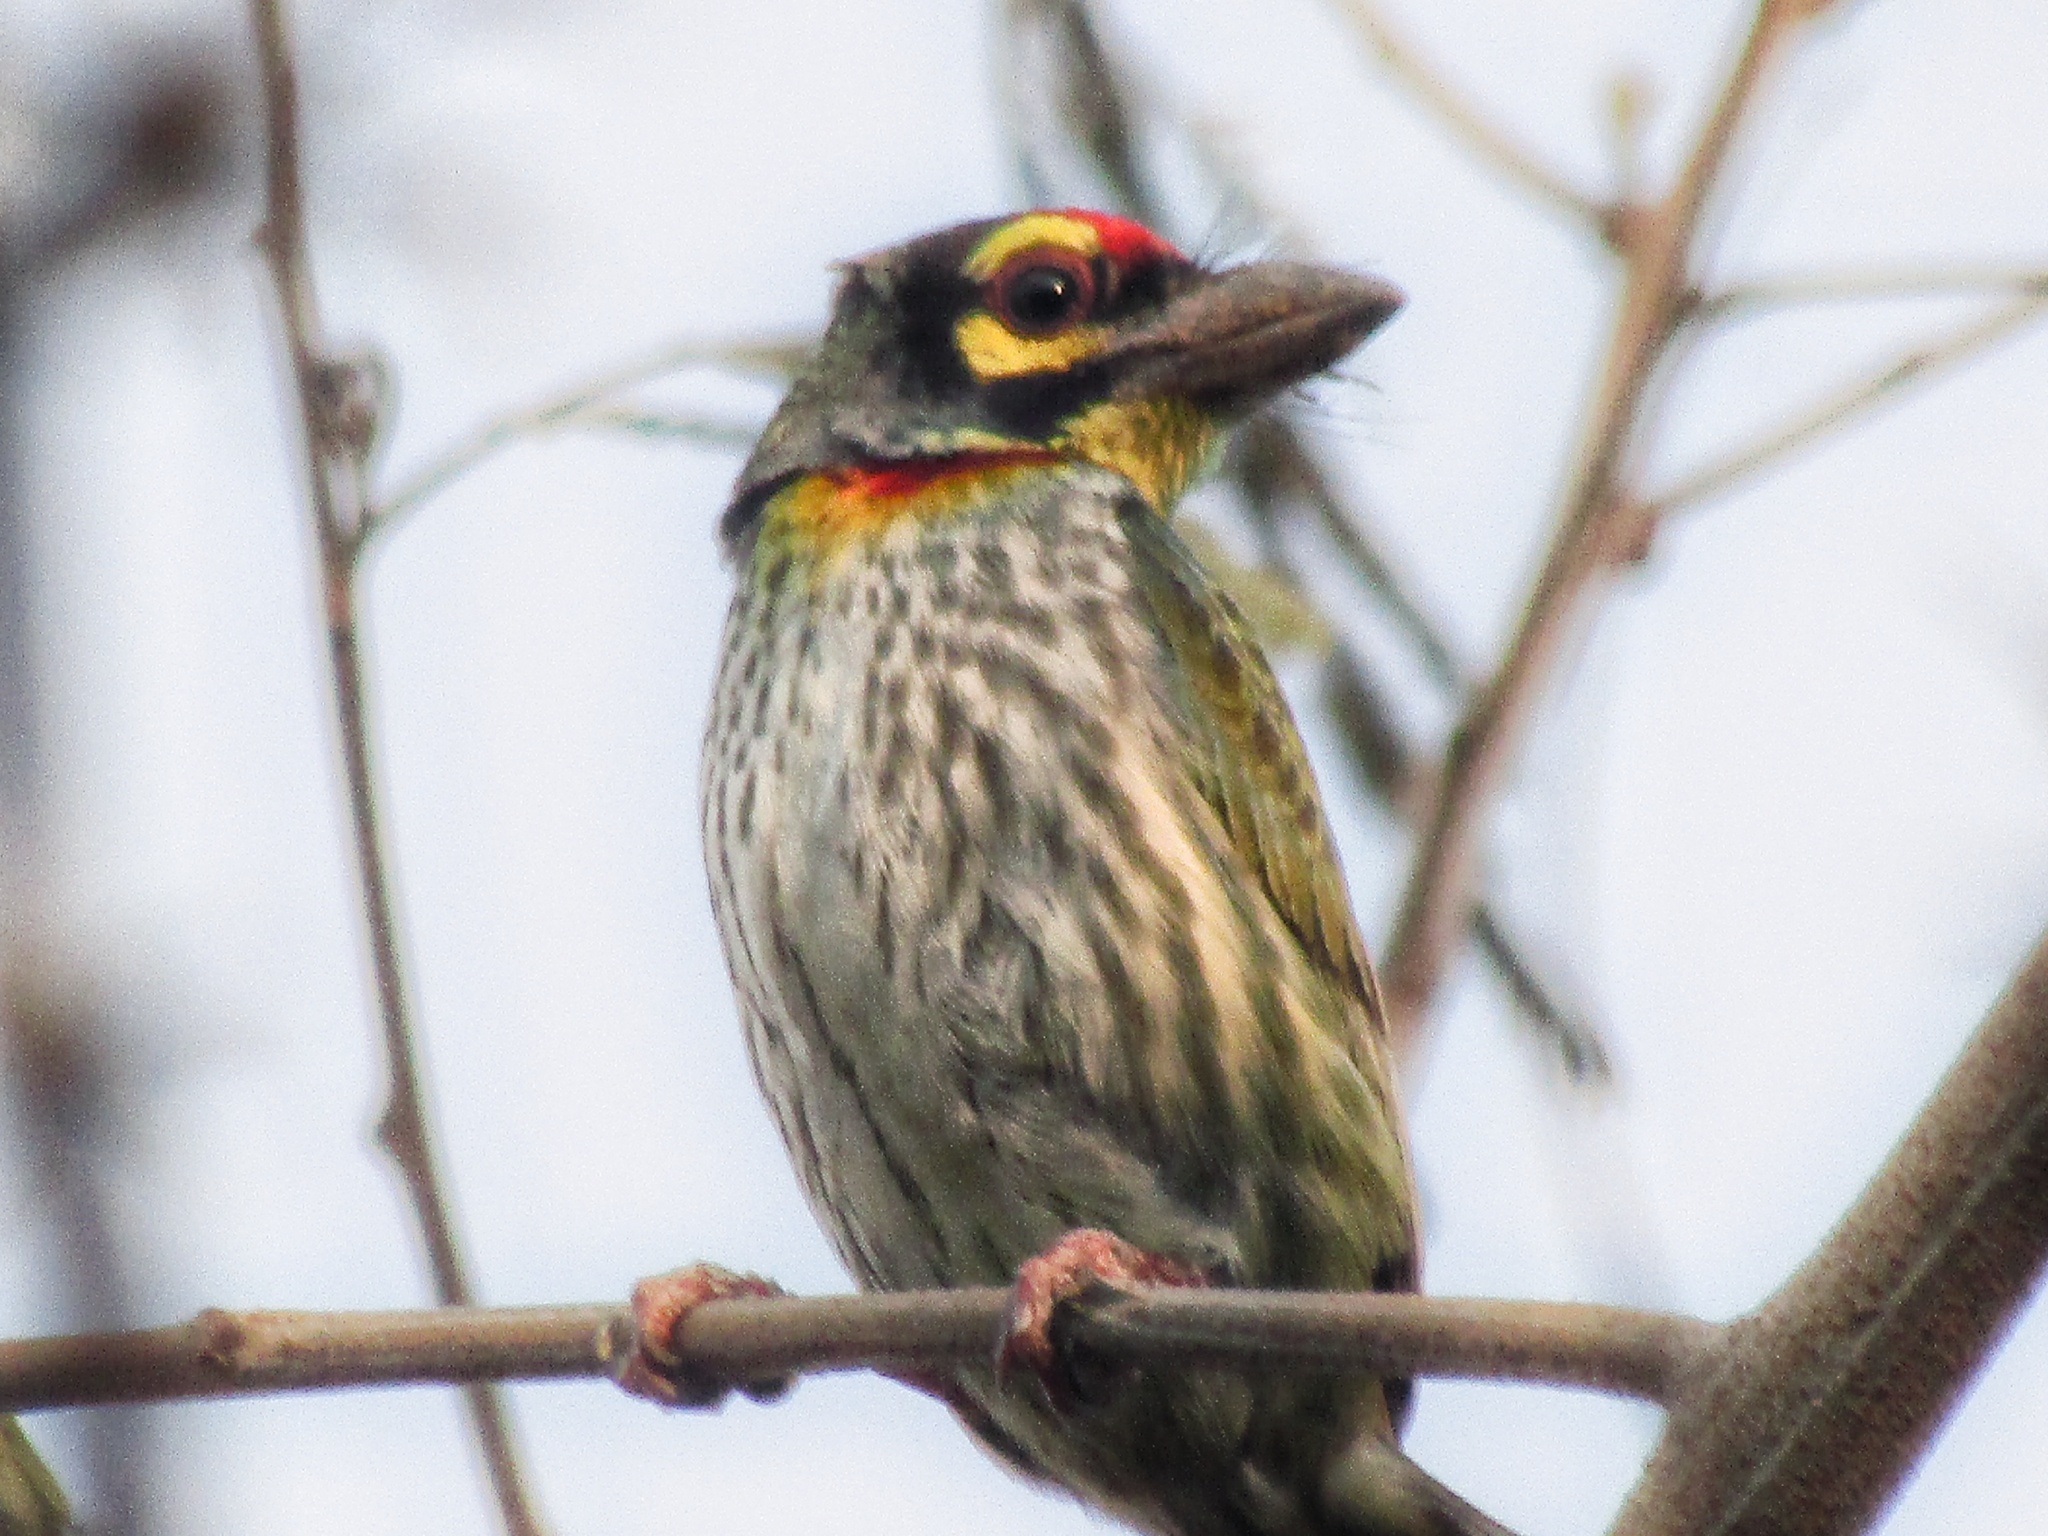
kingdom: Animalia
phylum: Chordata
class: Aves
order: Piciformes
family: Megalaimidae
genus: Psilopogon
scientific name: Psilopogon haemacephalus
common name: Coppersmith barbet
